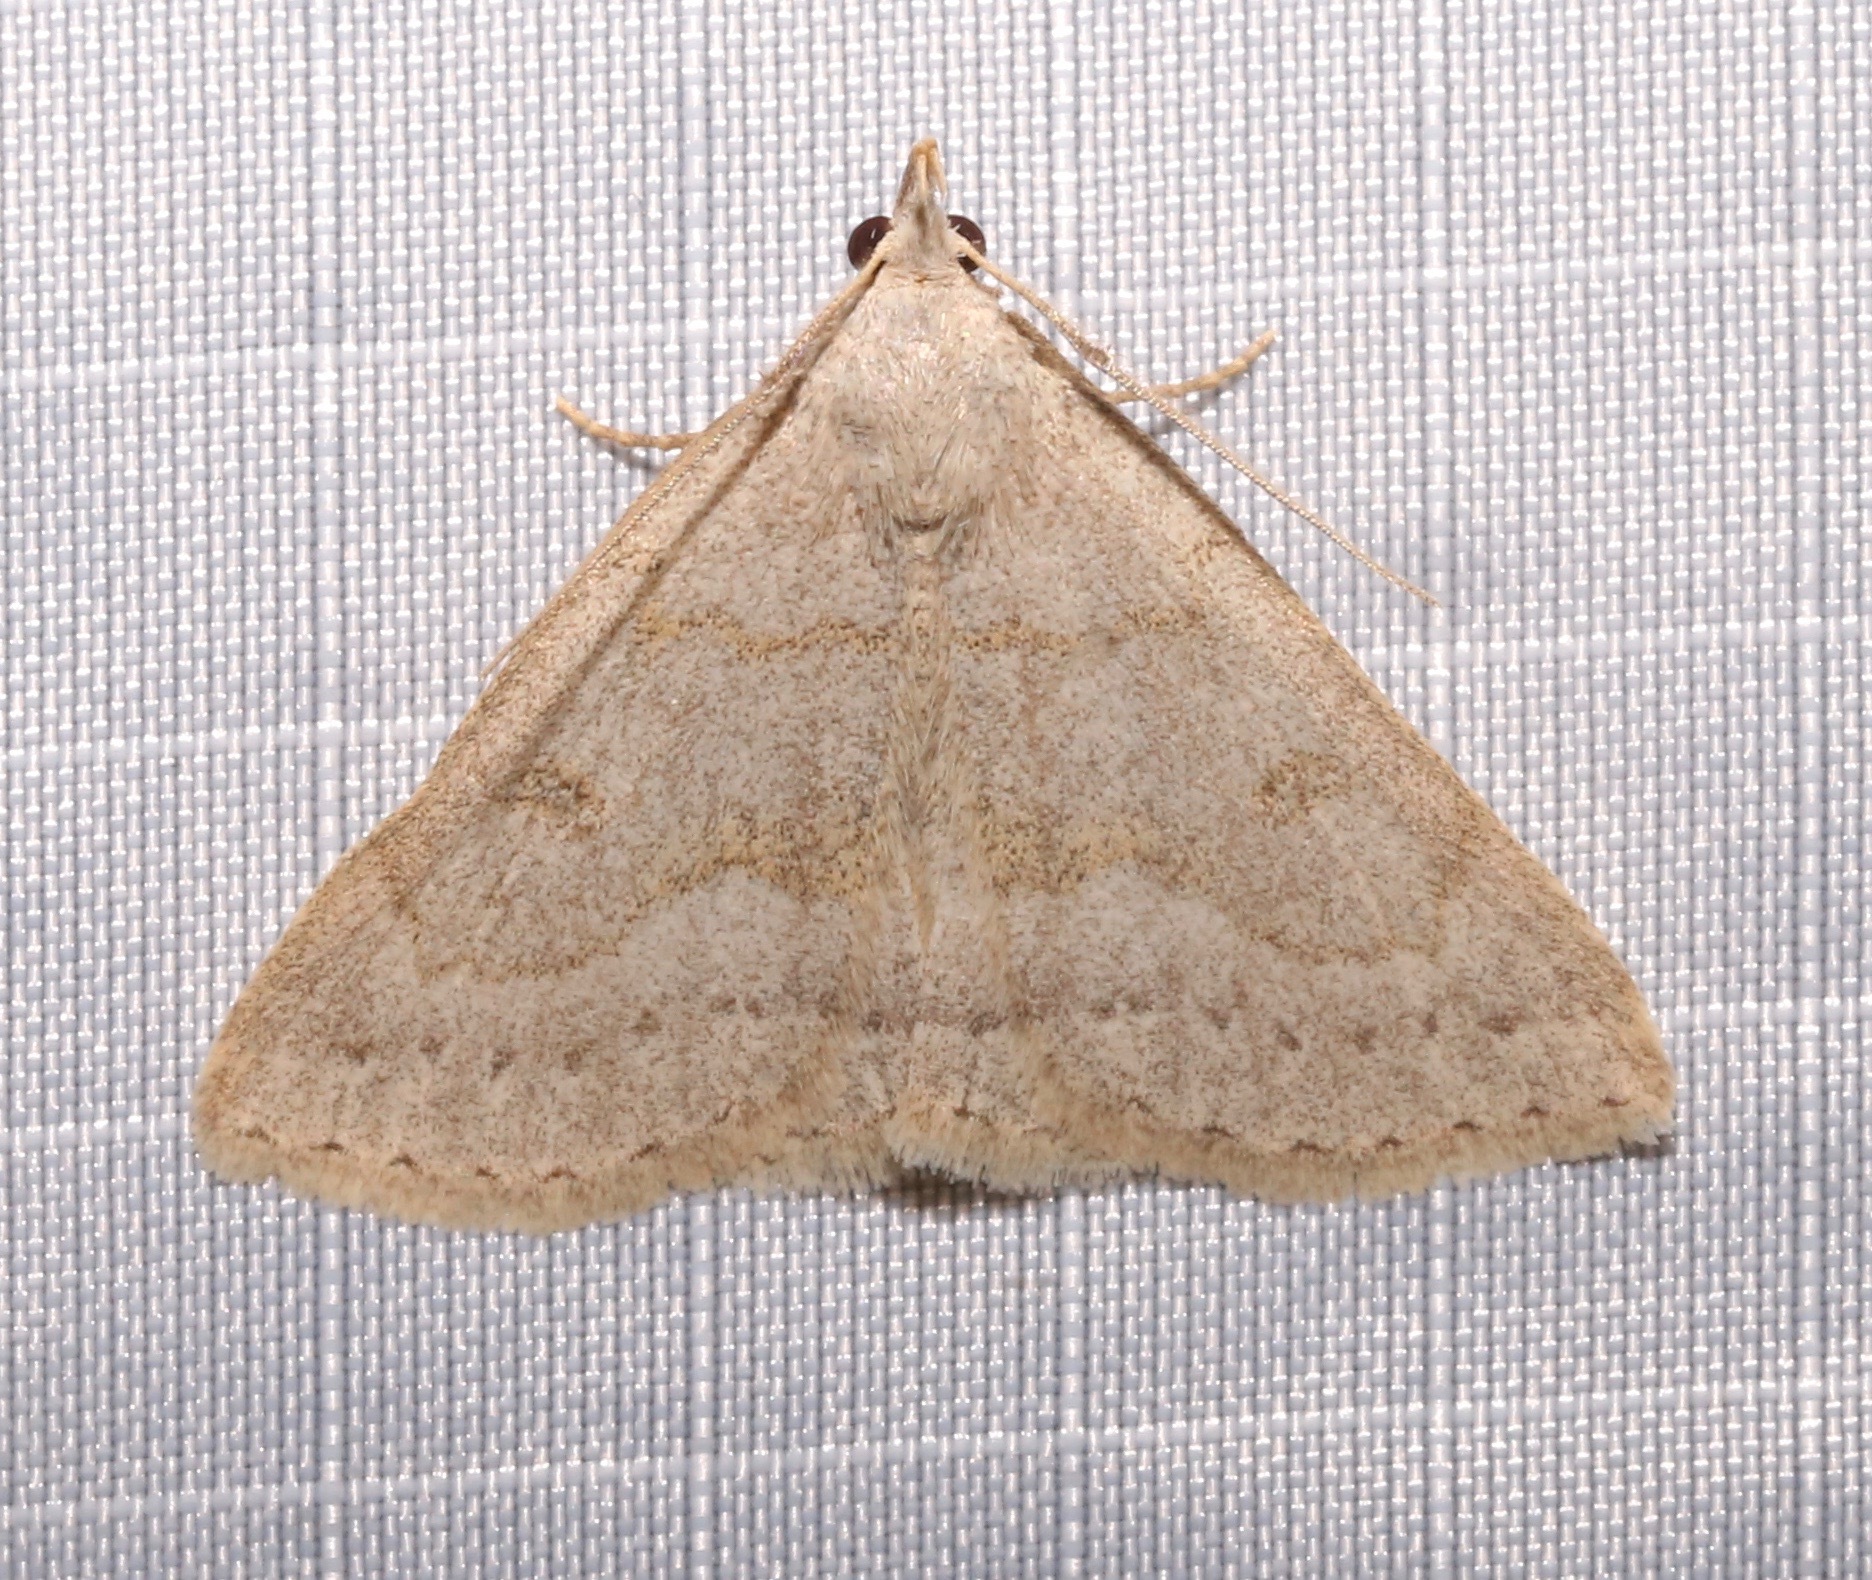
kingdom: Animalia
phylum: Arthropoda
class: Insecta
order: Lepidoptera
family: Erebidae
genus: Macrochilo
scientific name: Macrochilo morbidalis
